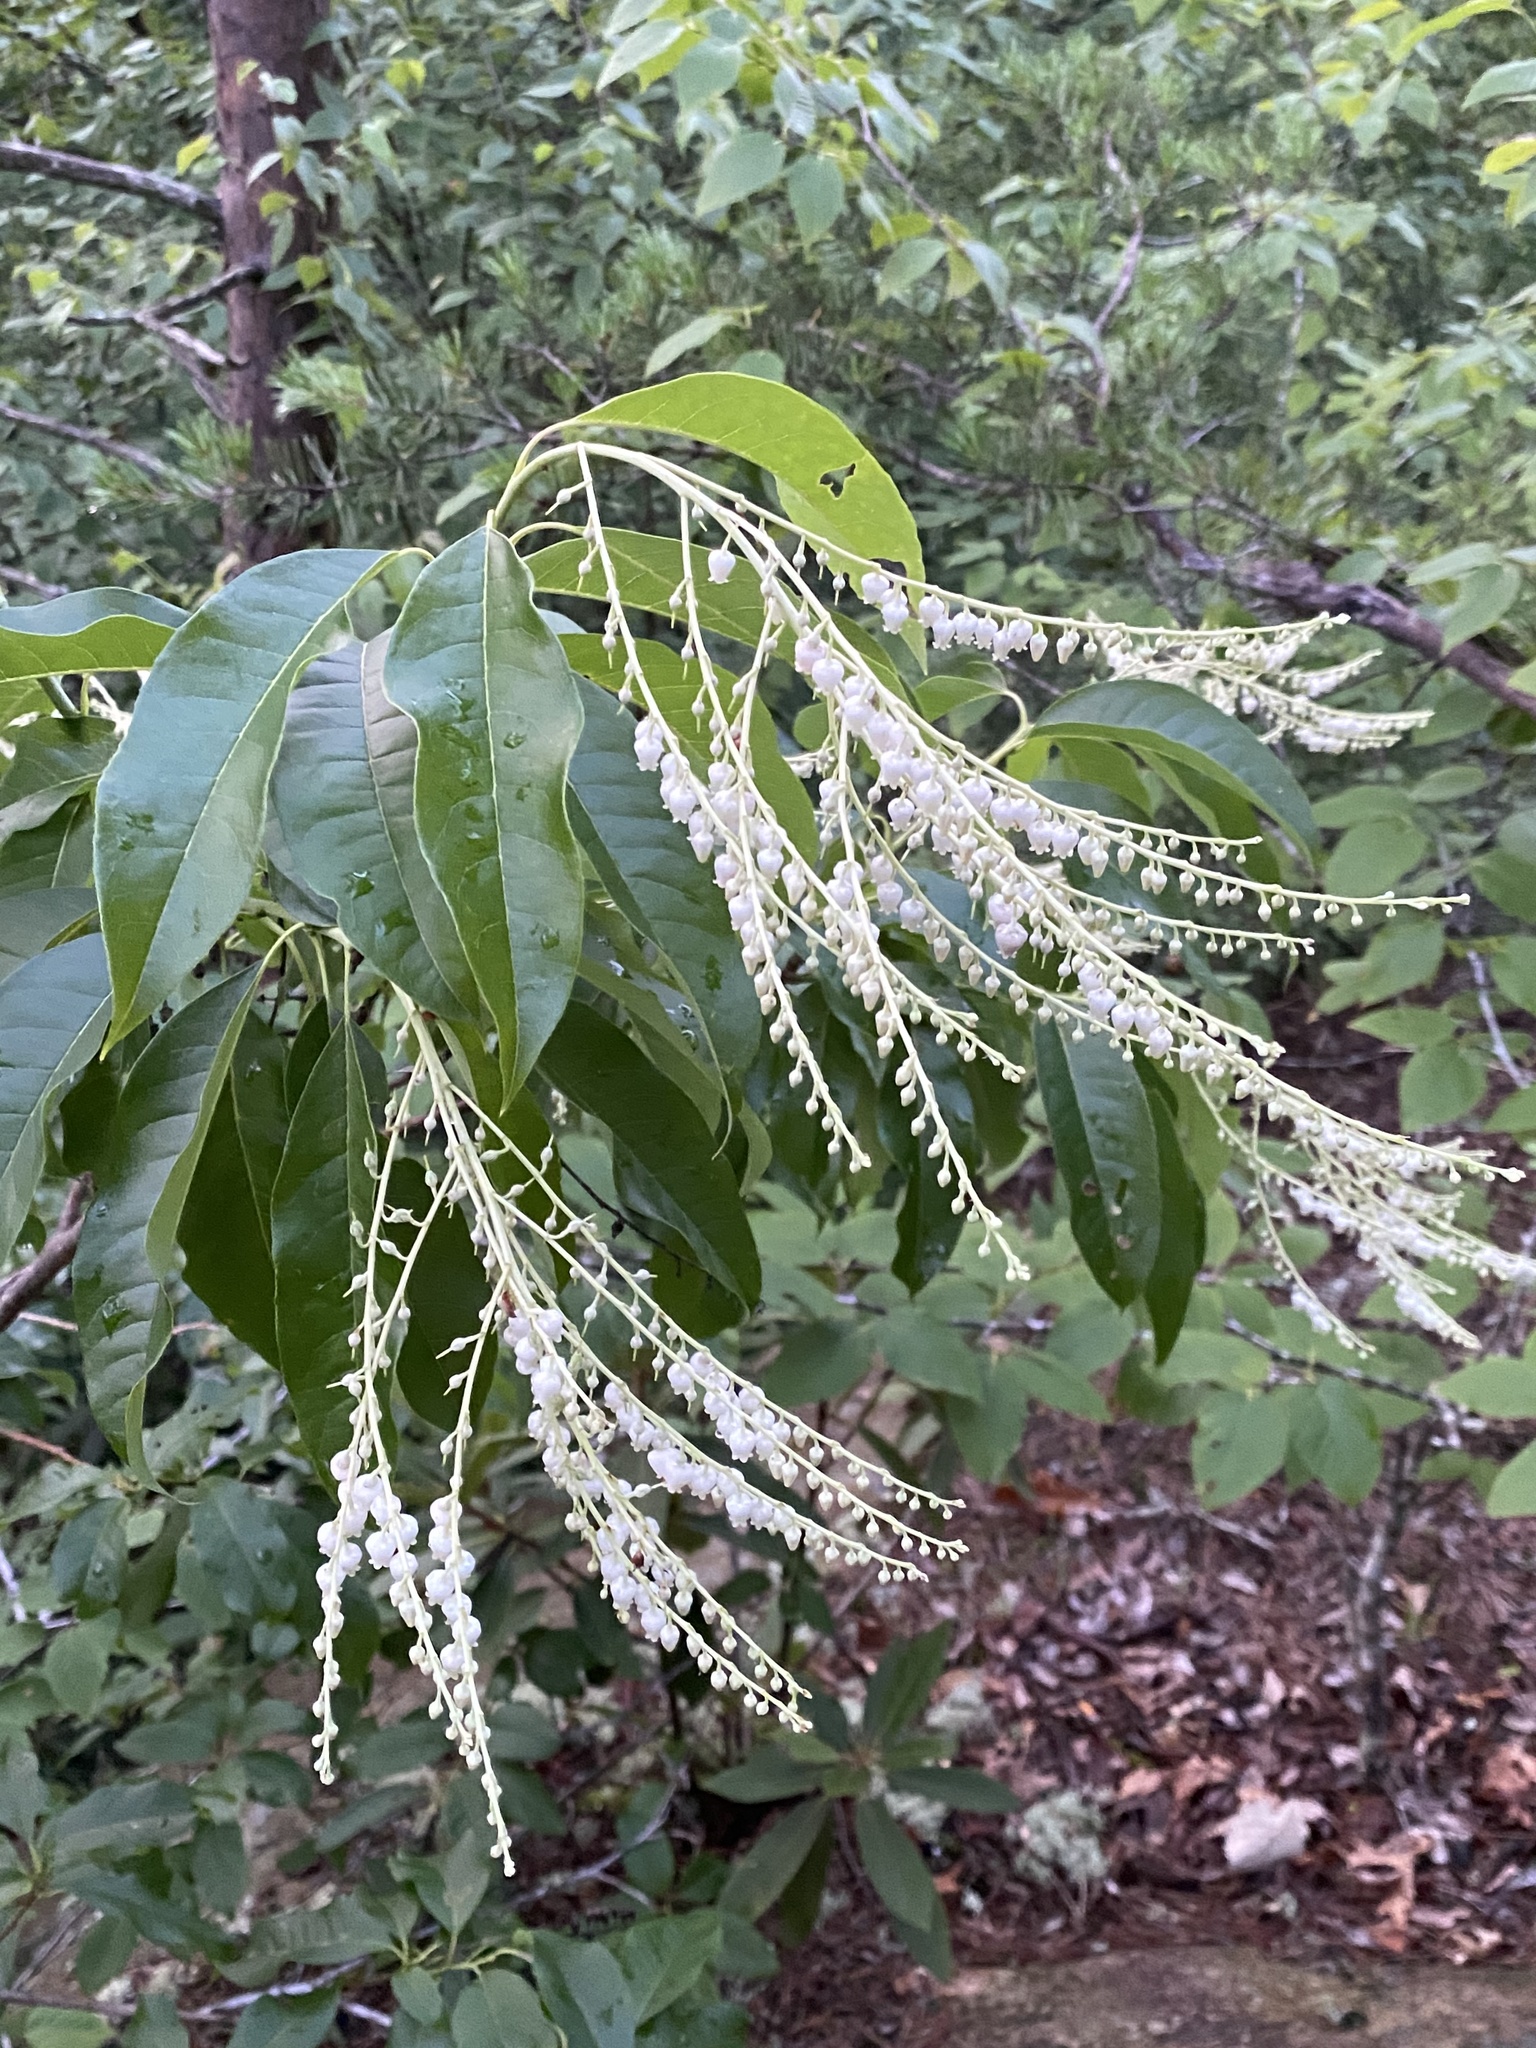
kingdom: Plantae
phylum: Tracheophyta
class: Magnoliopsida
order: Ericales
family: Ericaceae
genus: Oxydendrum
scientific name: Oxydendrum arboreum
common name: Sourwood
